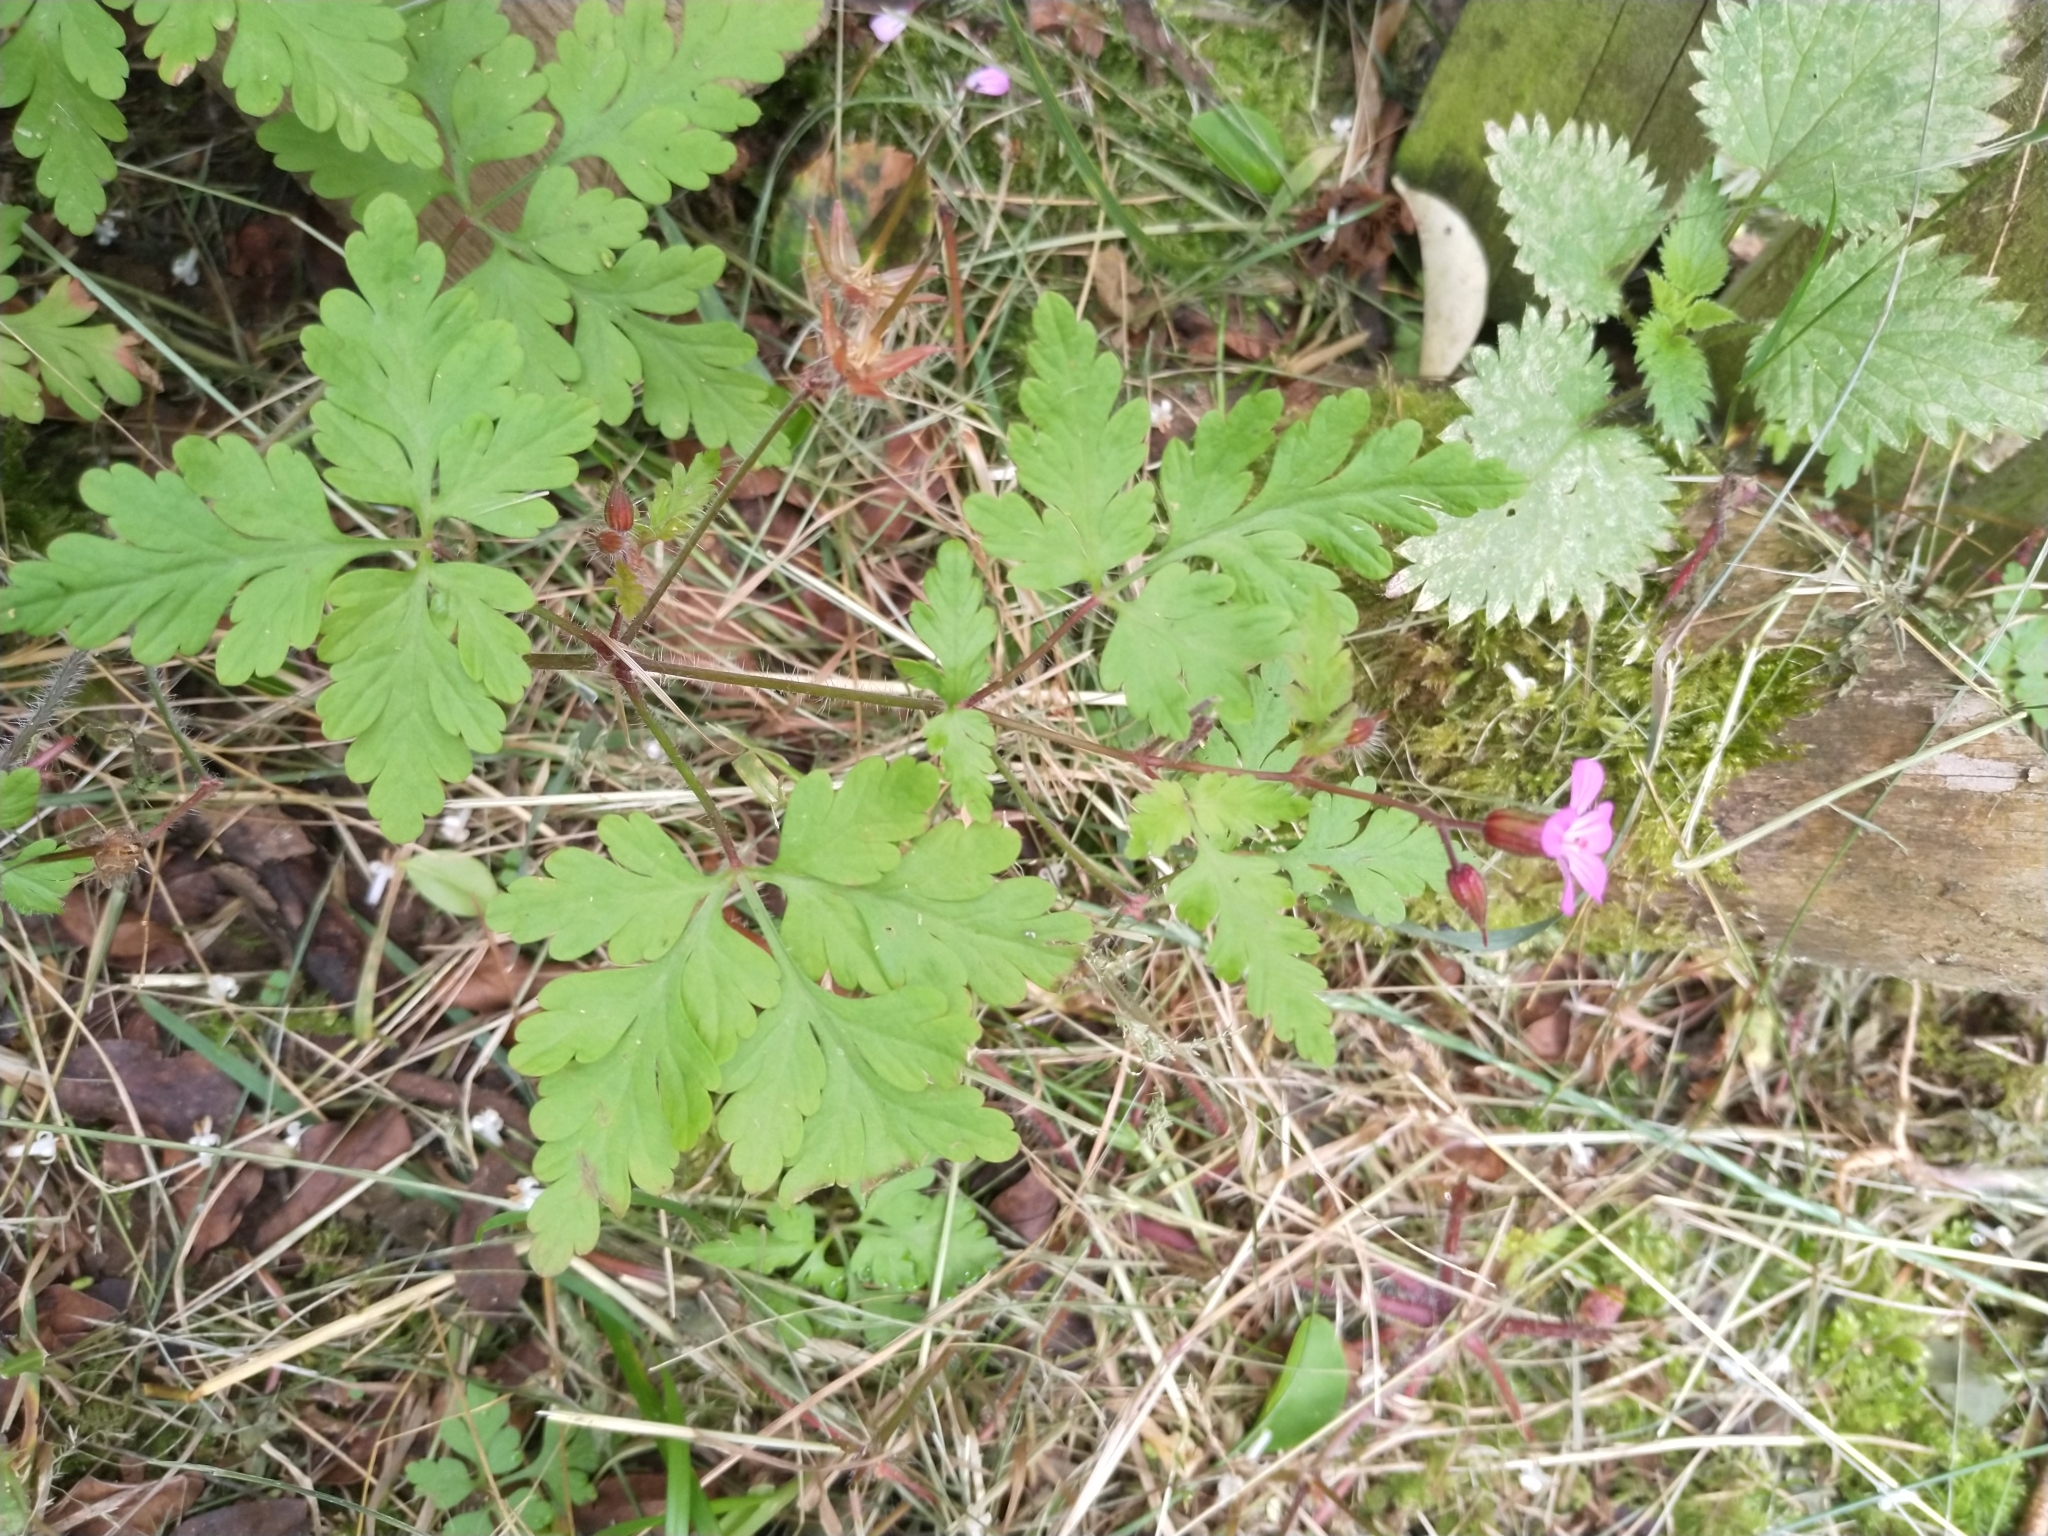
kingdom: Plantae
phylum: Tracheophyta
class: Magnoliopsida
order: Geraniales
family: Geraniaceae
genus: Geranium
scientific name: Geranium robertianum
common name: Herb-robert
